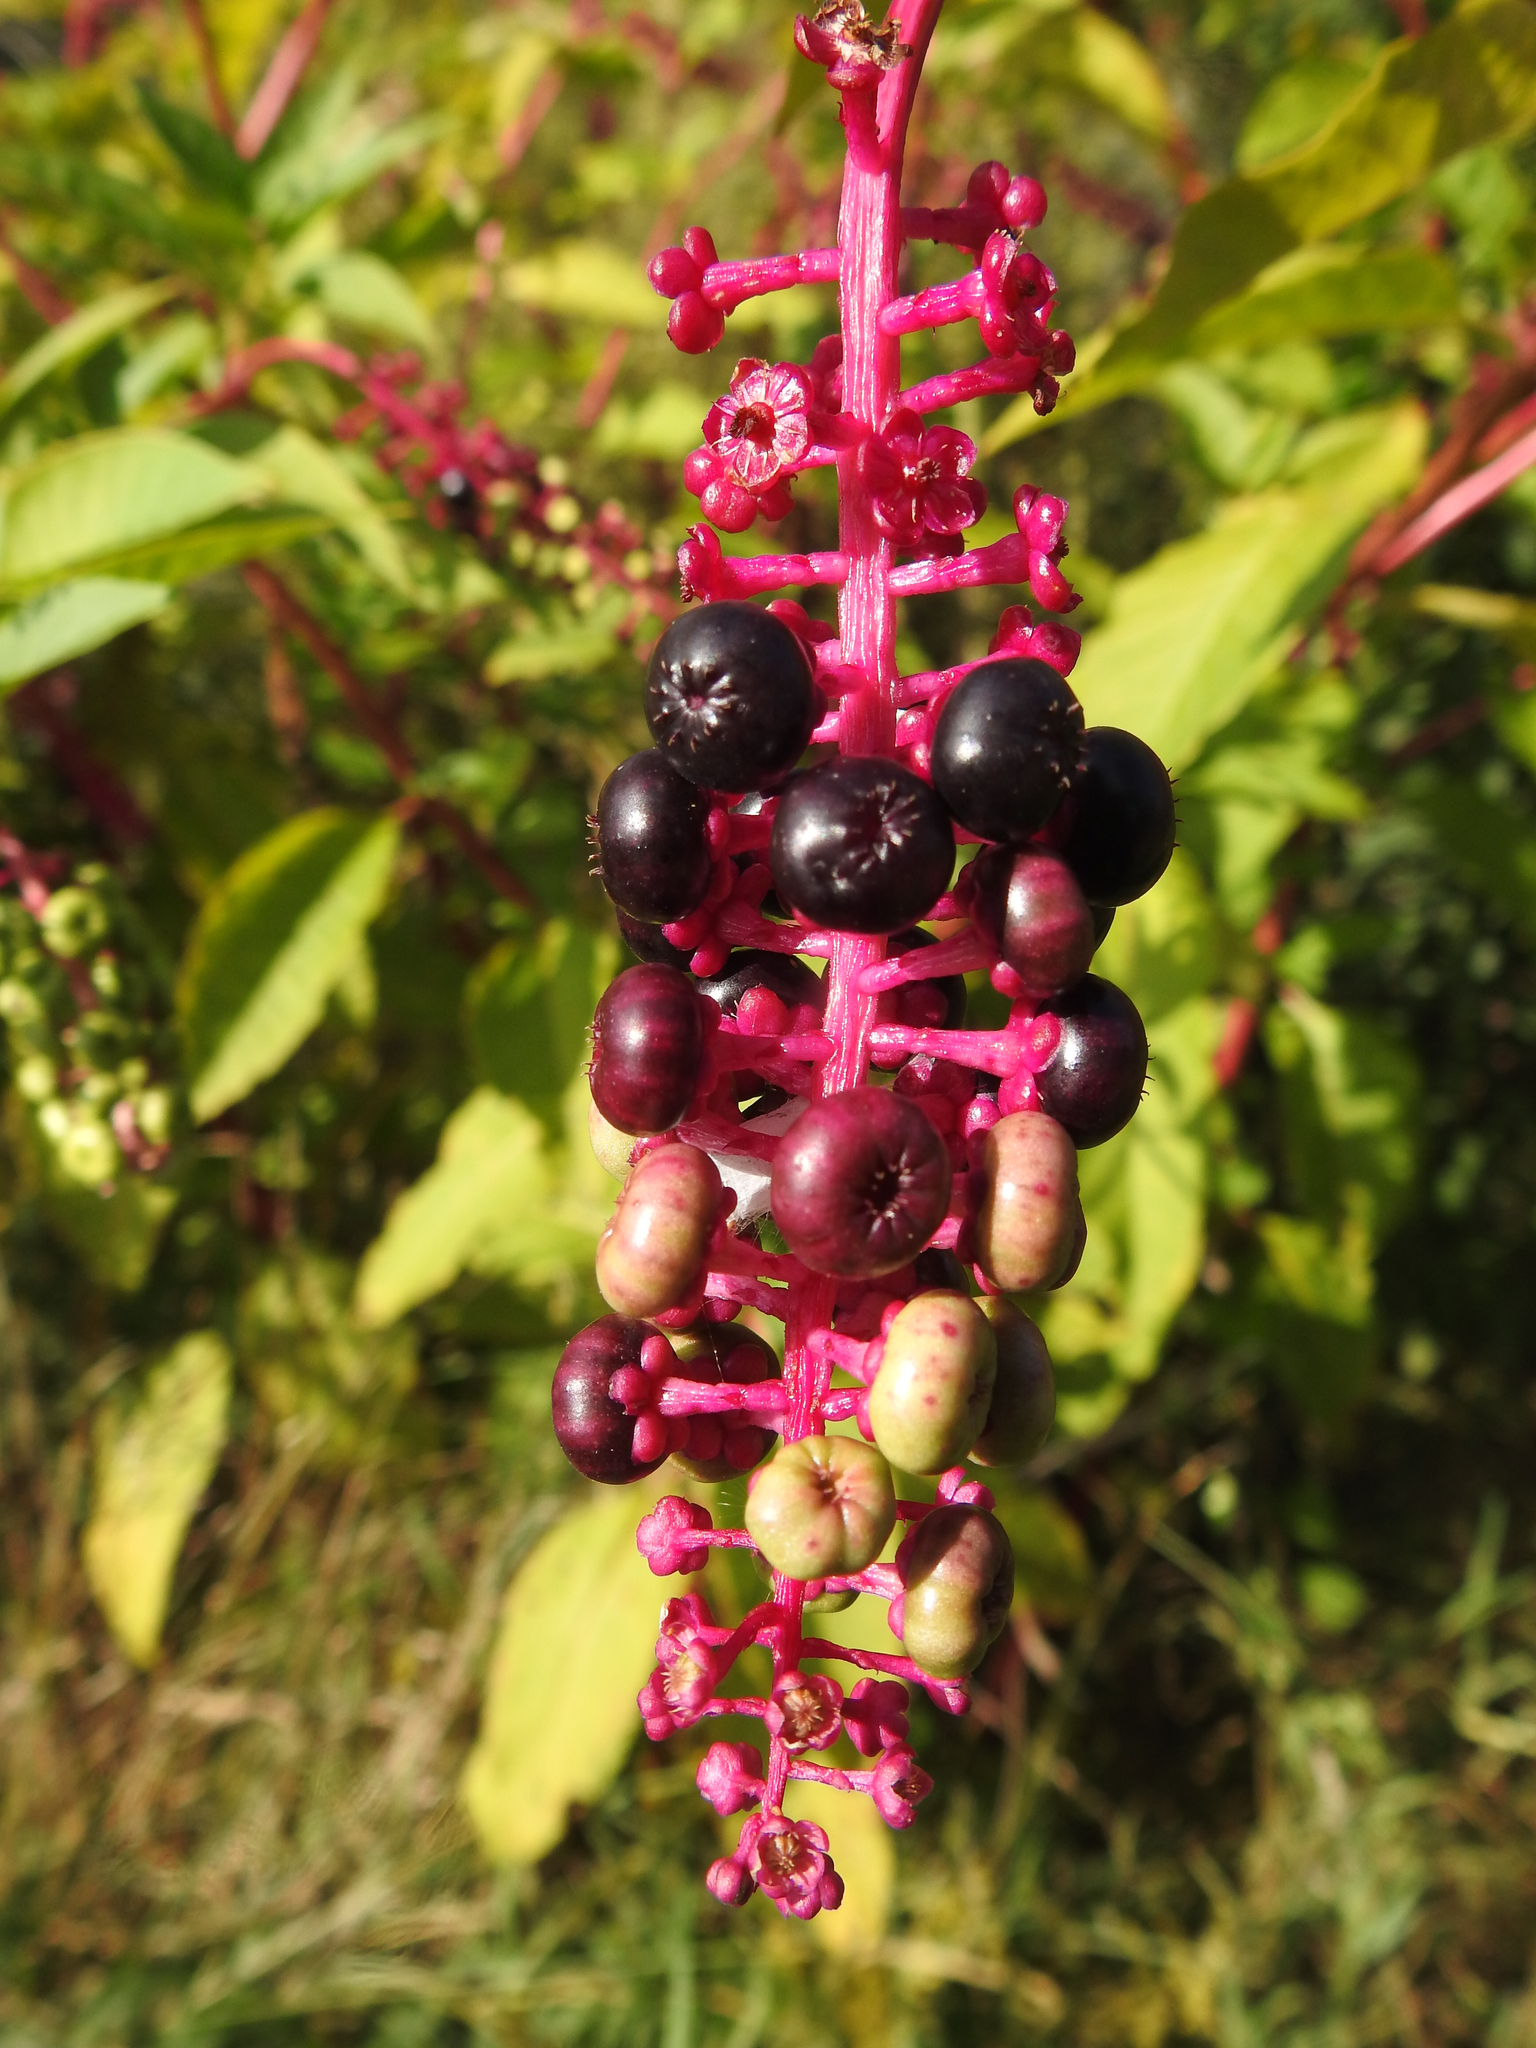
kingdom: Plantae
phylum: Tracheophyta
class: Magnoliopsida
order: Caryophyllales
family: Phytolaccaceae
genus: Phytolacca
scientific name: Phytolacca americana
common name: American pokeweed
